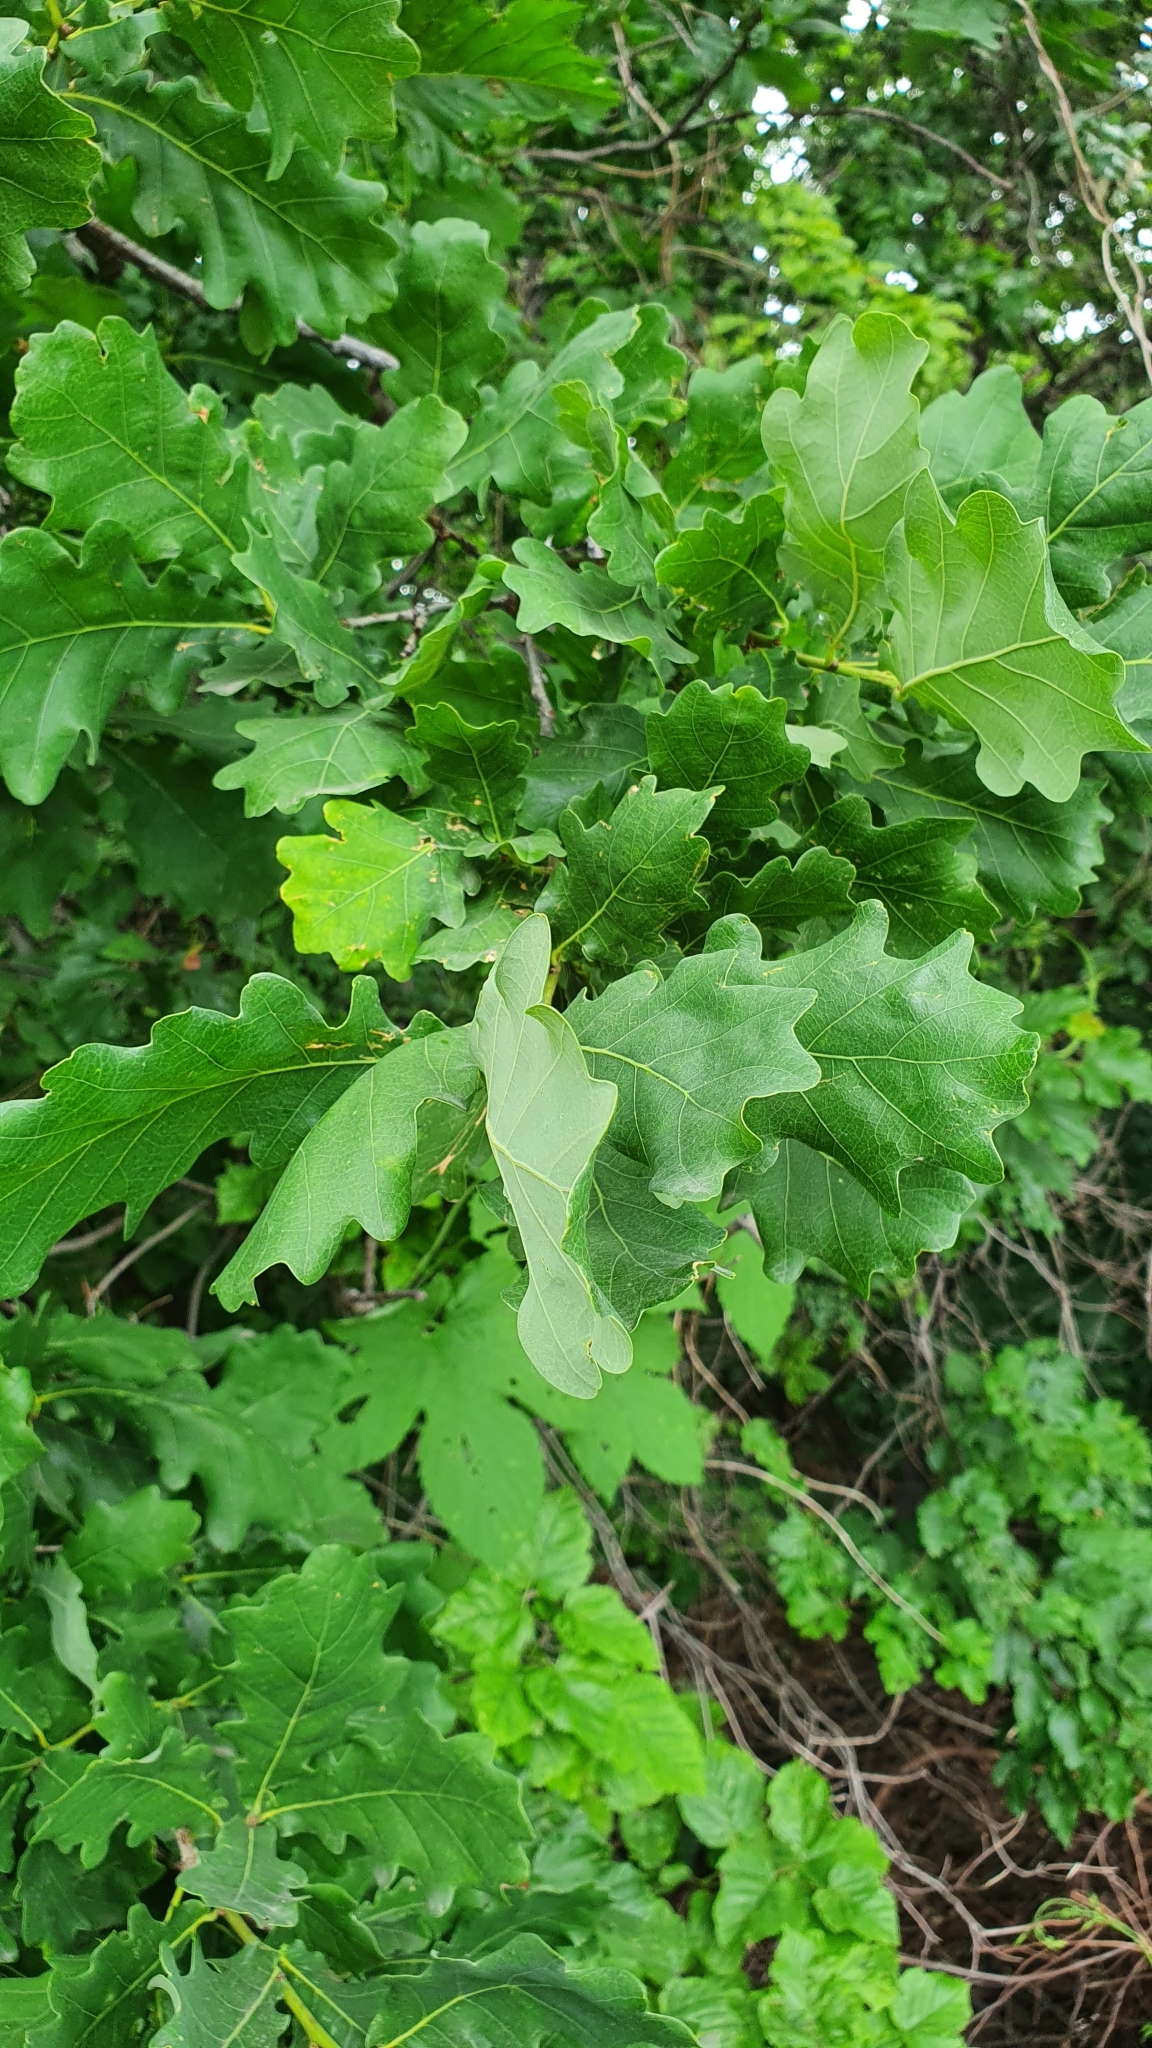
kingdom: Plantae
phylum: Tracheophyta
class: Magnoliopsida
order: Fagales
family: Fagaceae
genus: Quercus
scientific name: Quercus robur
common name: Pedunculate oak
